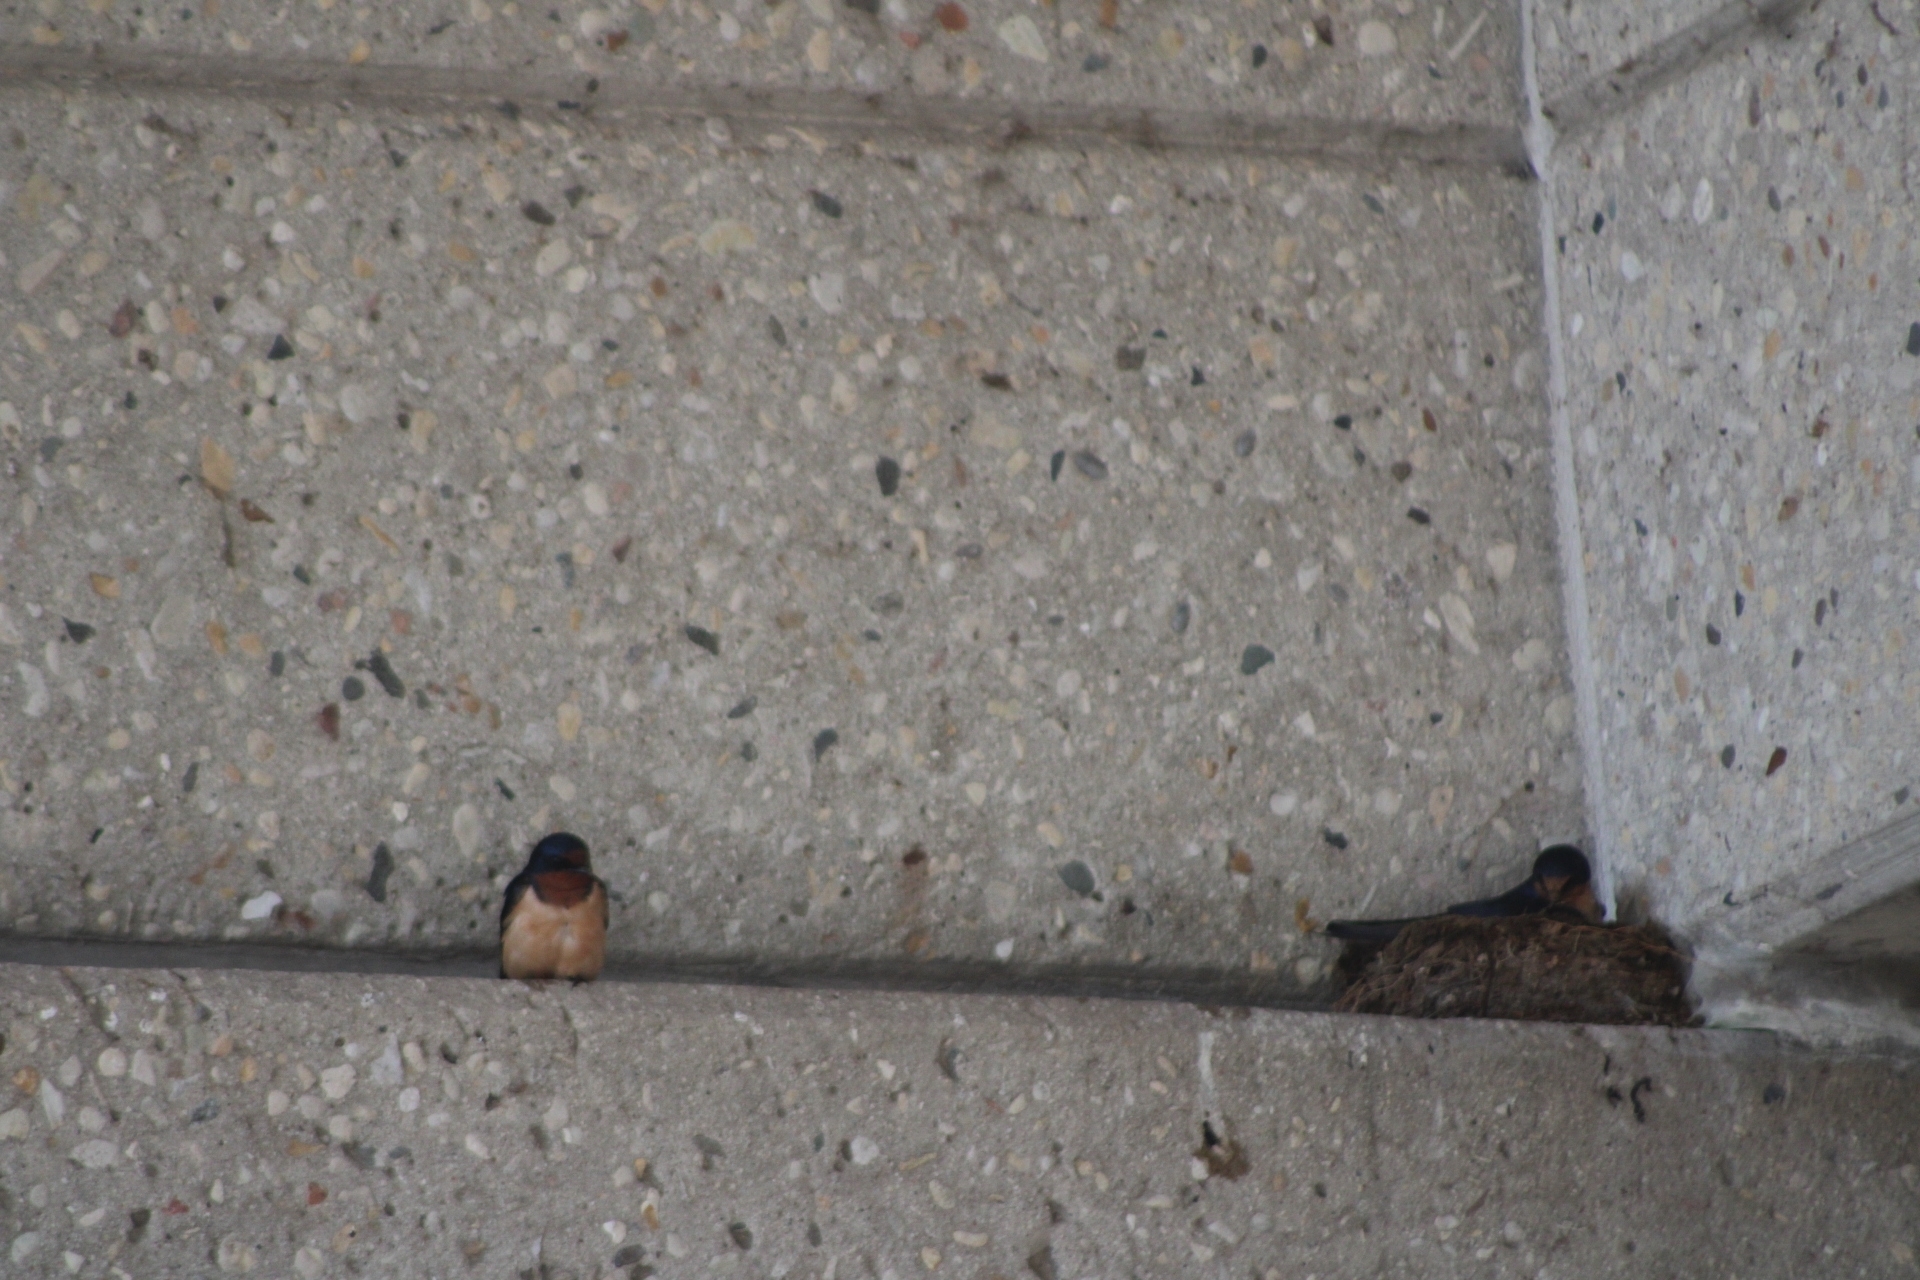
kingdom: Animalia
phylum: Chordata
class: Aves
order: Passeriformes
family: Hirundinidae
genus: Hirundo
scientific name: Hirundo rustica
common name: Barn swallow
